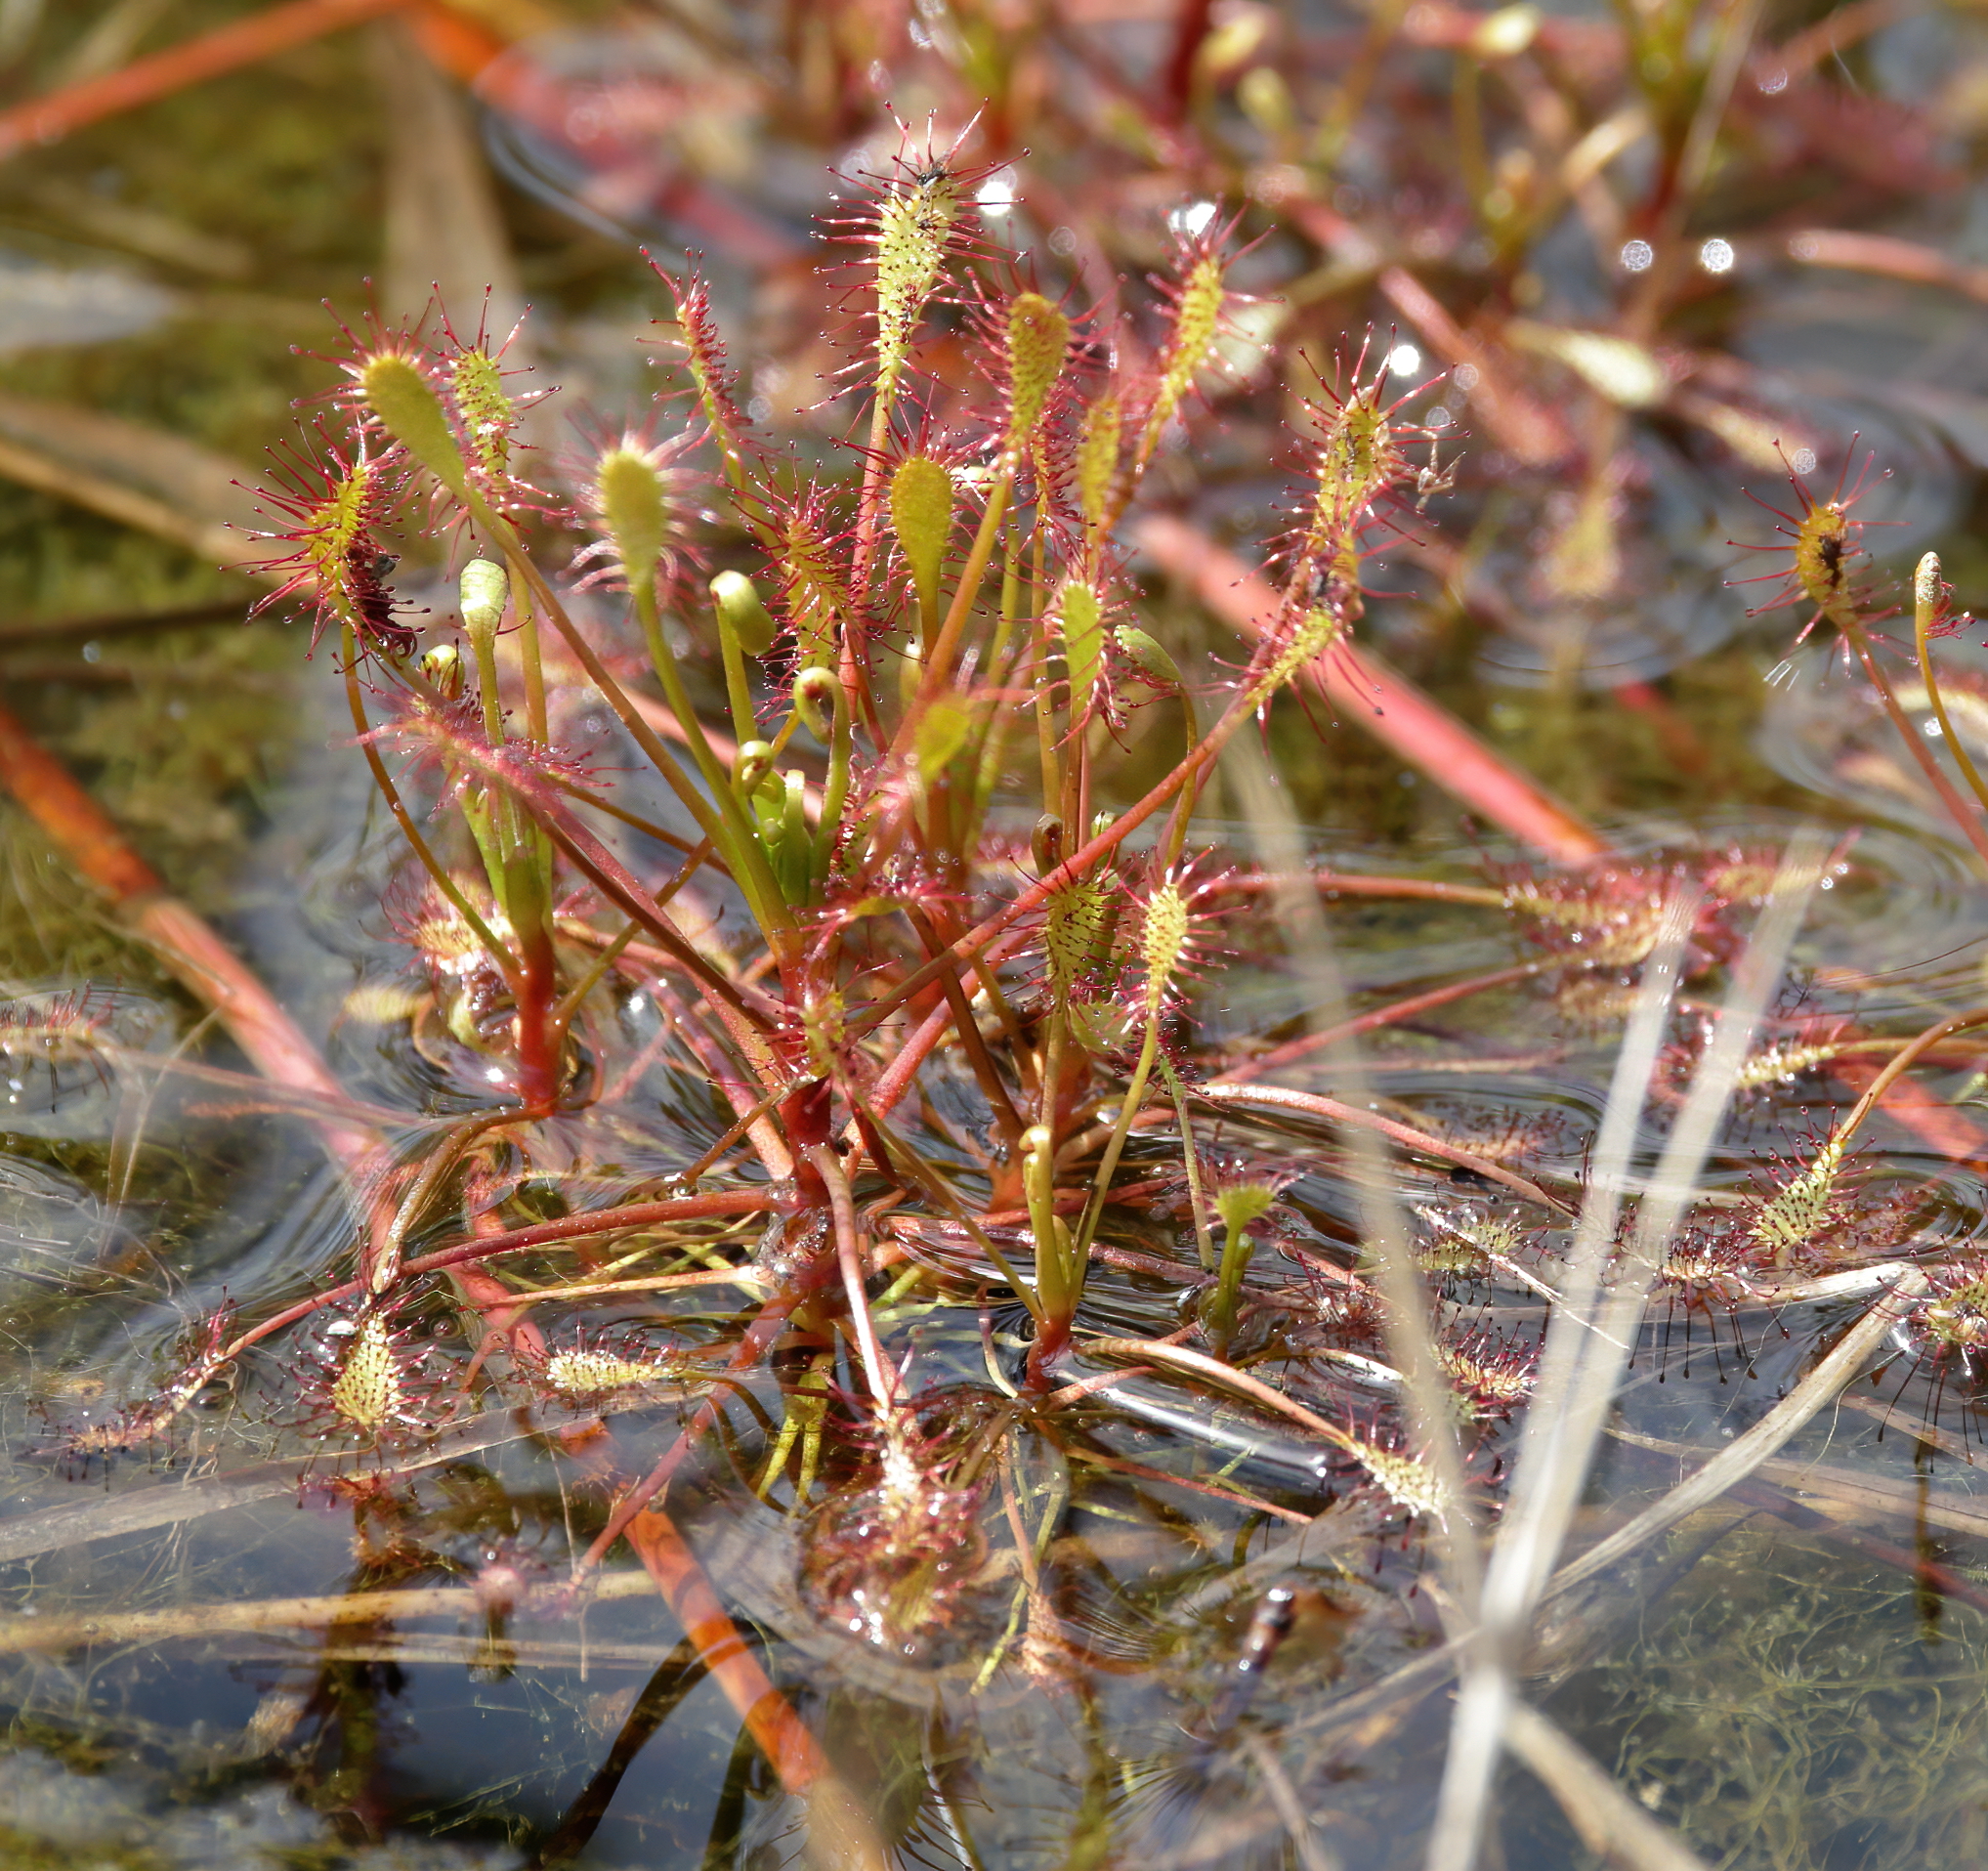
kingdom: Plantae
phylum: Tracheophyta
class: Magnoliopsida
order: Caryophyllales
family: Droseraceae
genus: Drosera
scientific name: Drosera intermedia
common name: Oblong-leaved sundew
